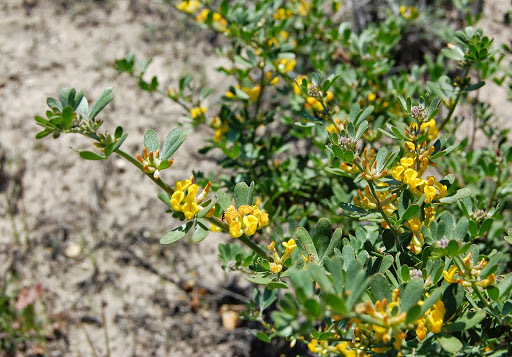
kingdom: Plantae
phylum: Tracheophyta
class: Magnoliopsida
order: Fabales
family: Fabaceae
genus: Acmispon
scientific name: Acmispon dendroideus
